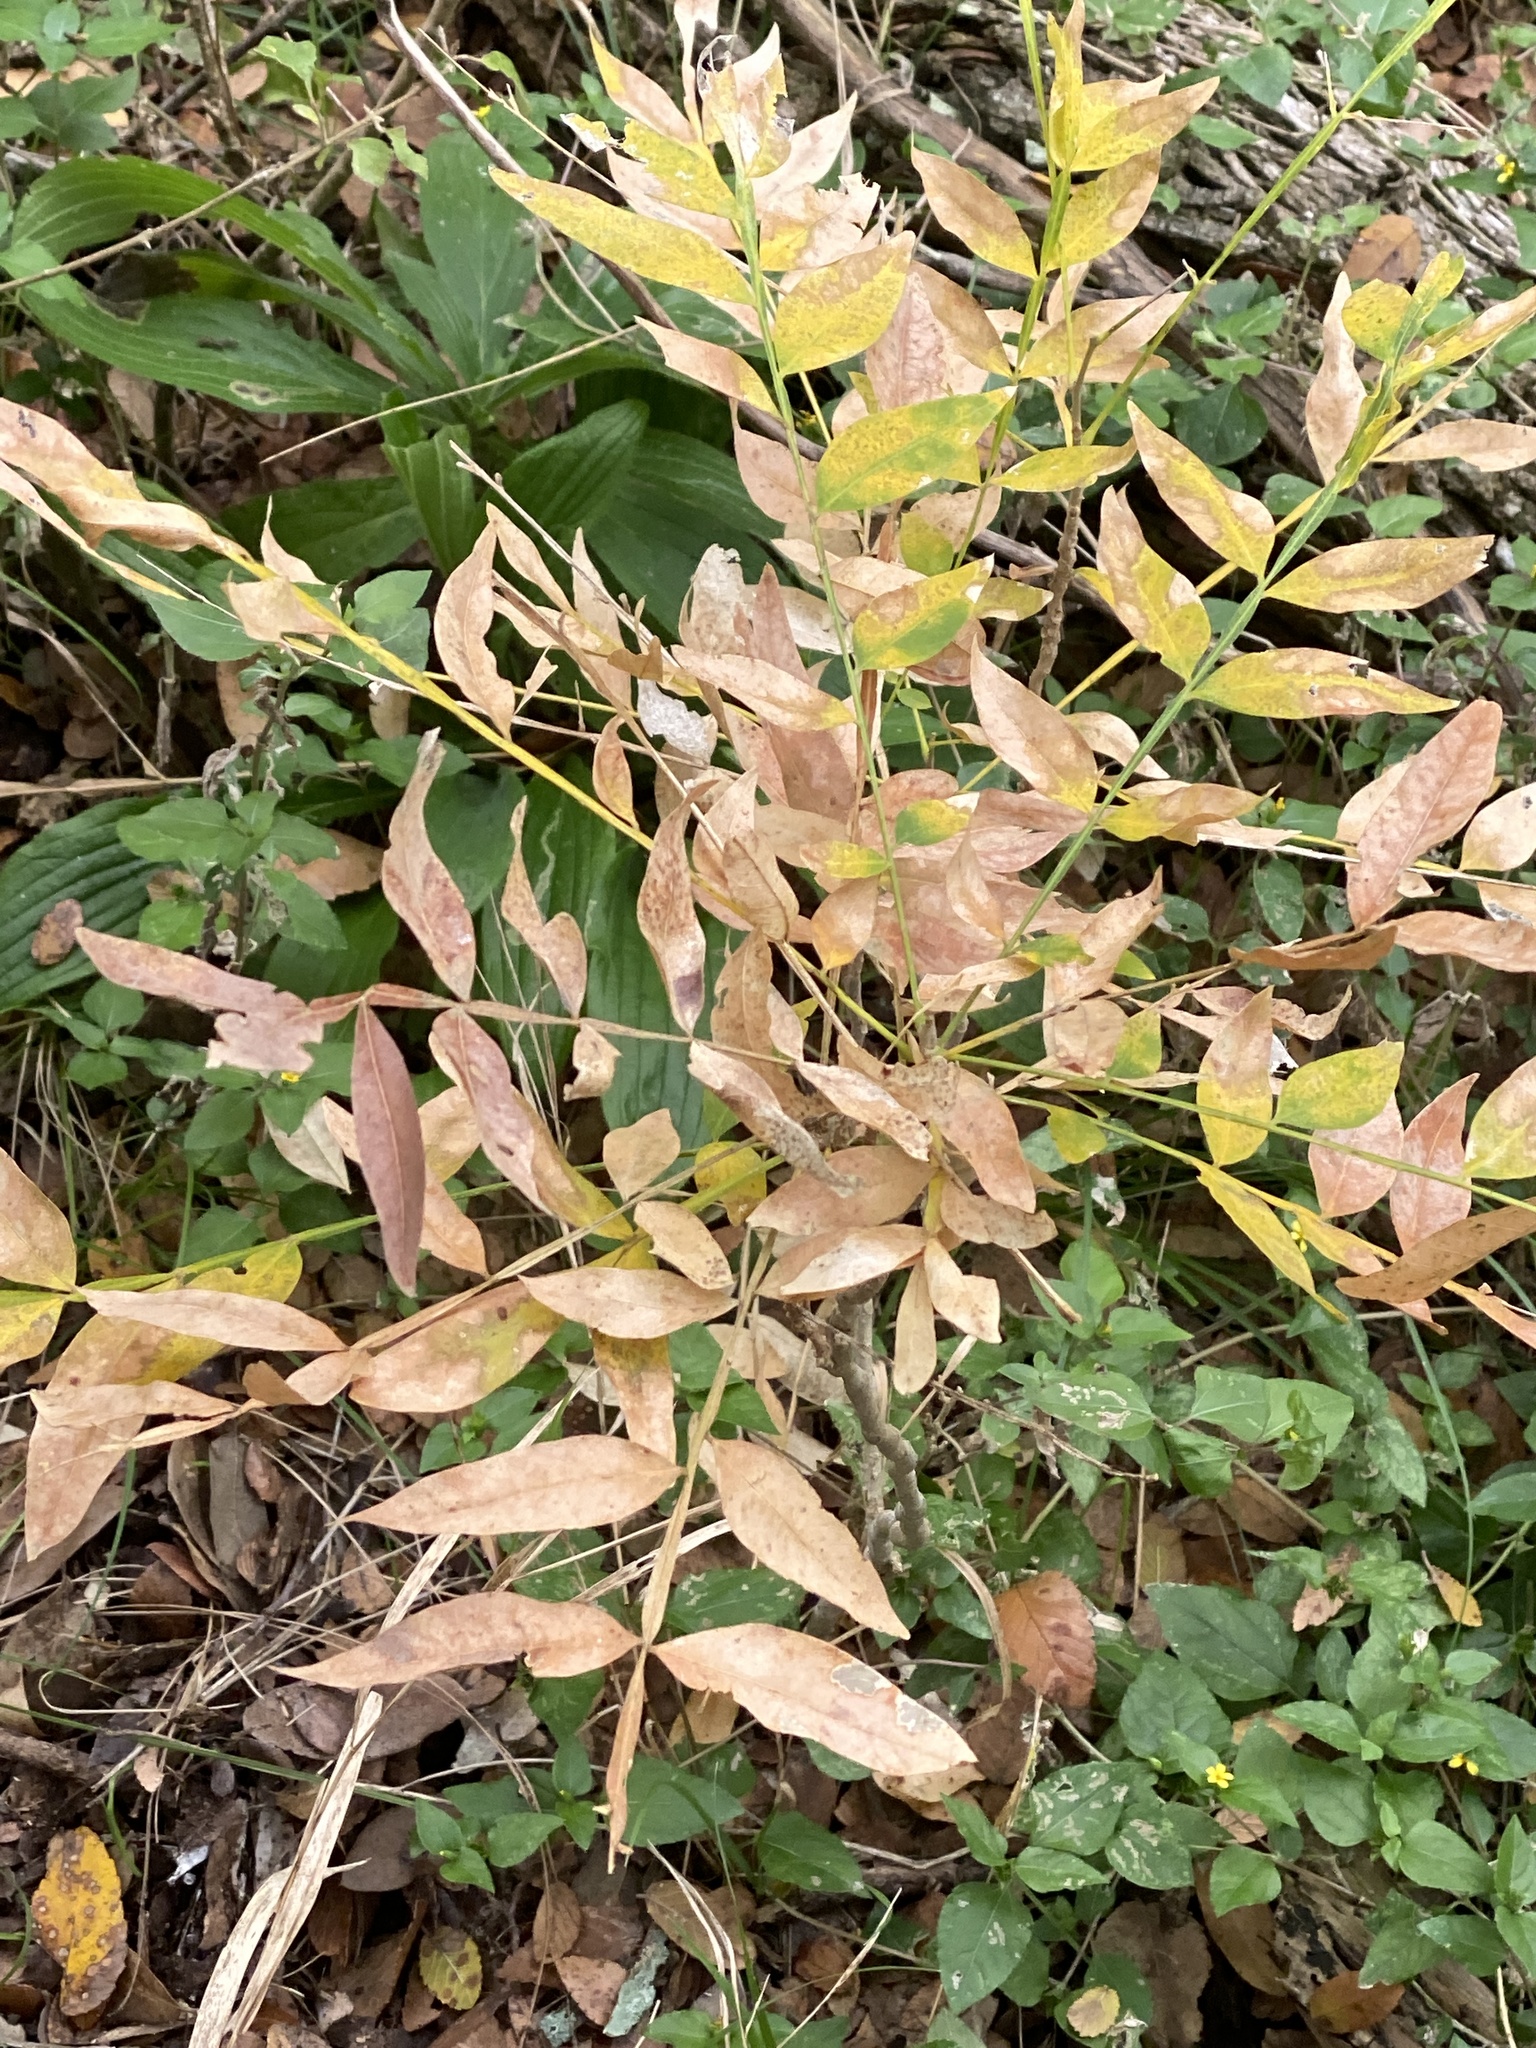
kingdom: Plantae
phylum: Tracheophyta
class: Magnoliopsida
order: Sapindales
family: Sapindaceae
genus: Sapindus
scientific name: Sapindus drummondii
